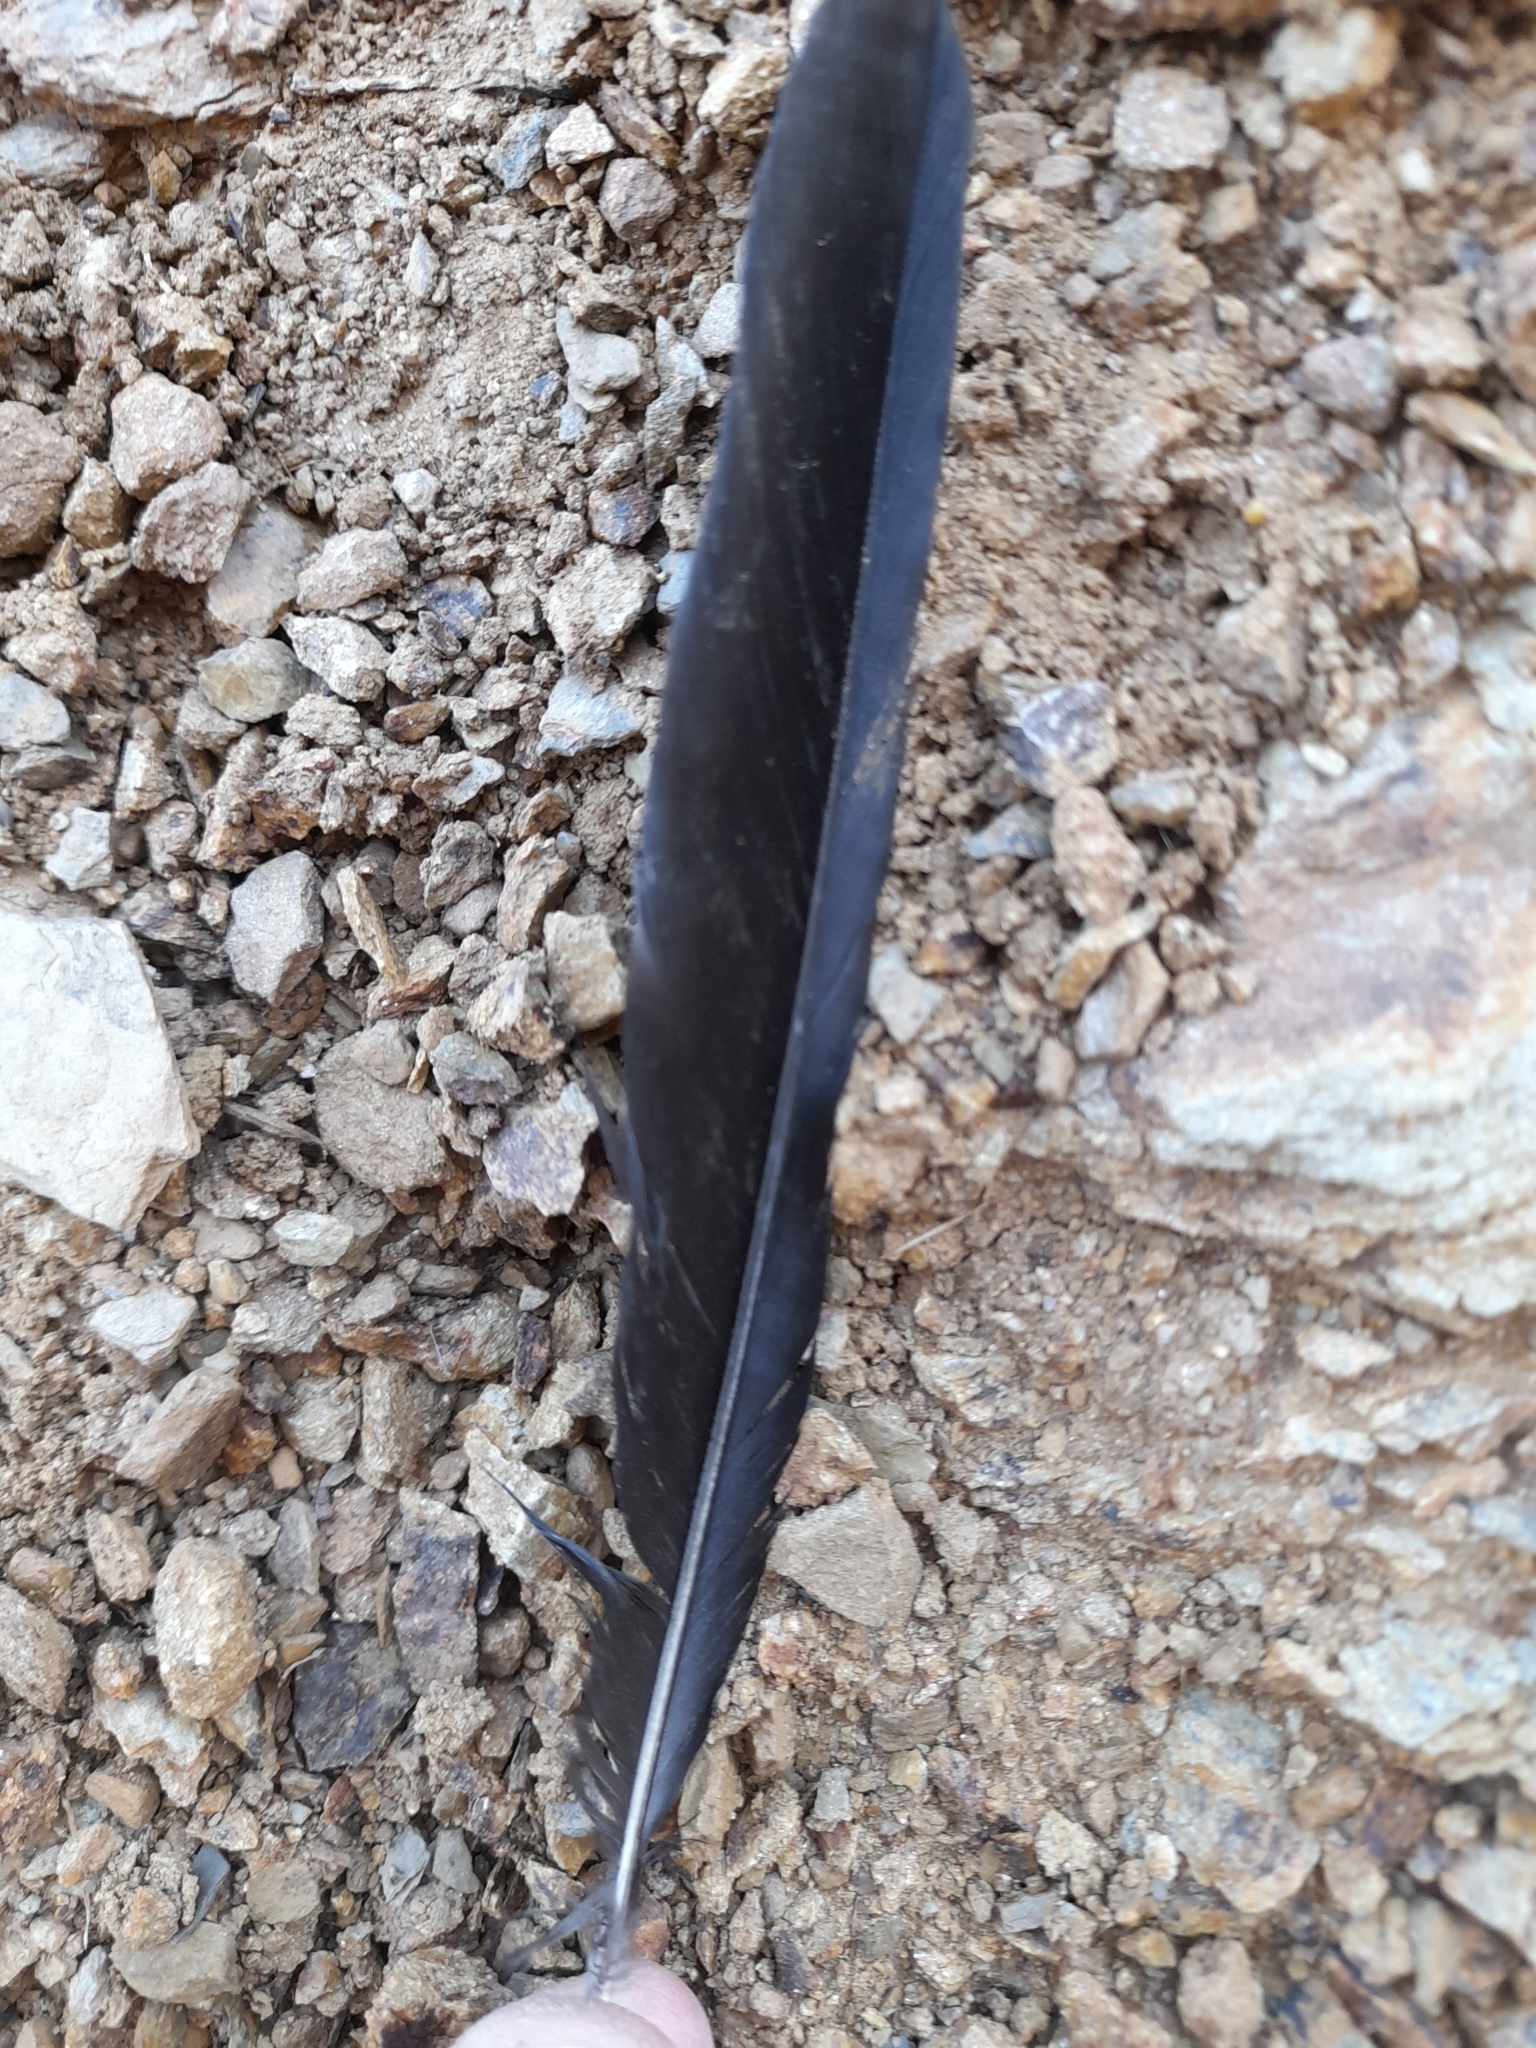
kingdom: Animalia
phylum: Chordata
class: Aves
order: Passeriformes
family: Corvidae
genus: Pica
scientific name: Pica pica
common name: Eurasian magpie
